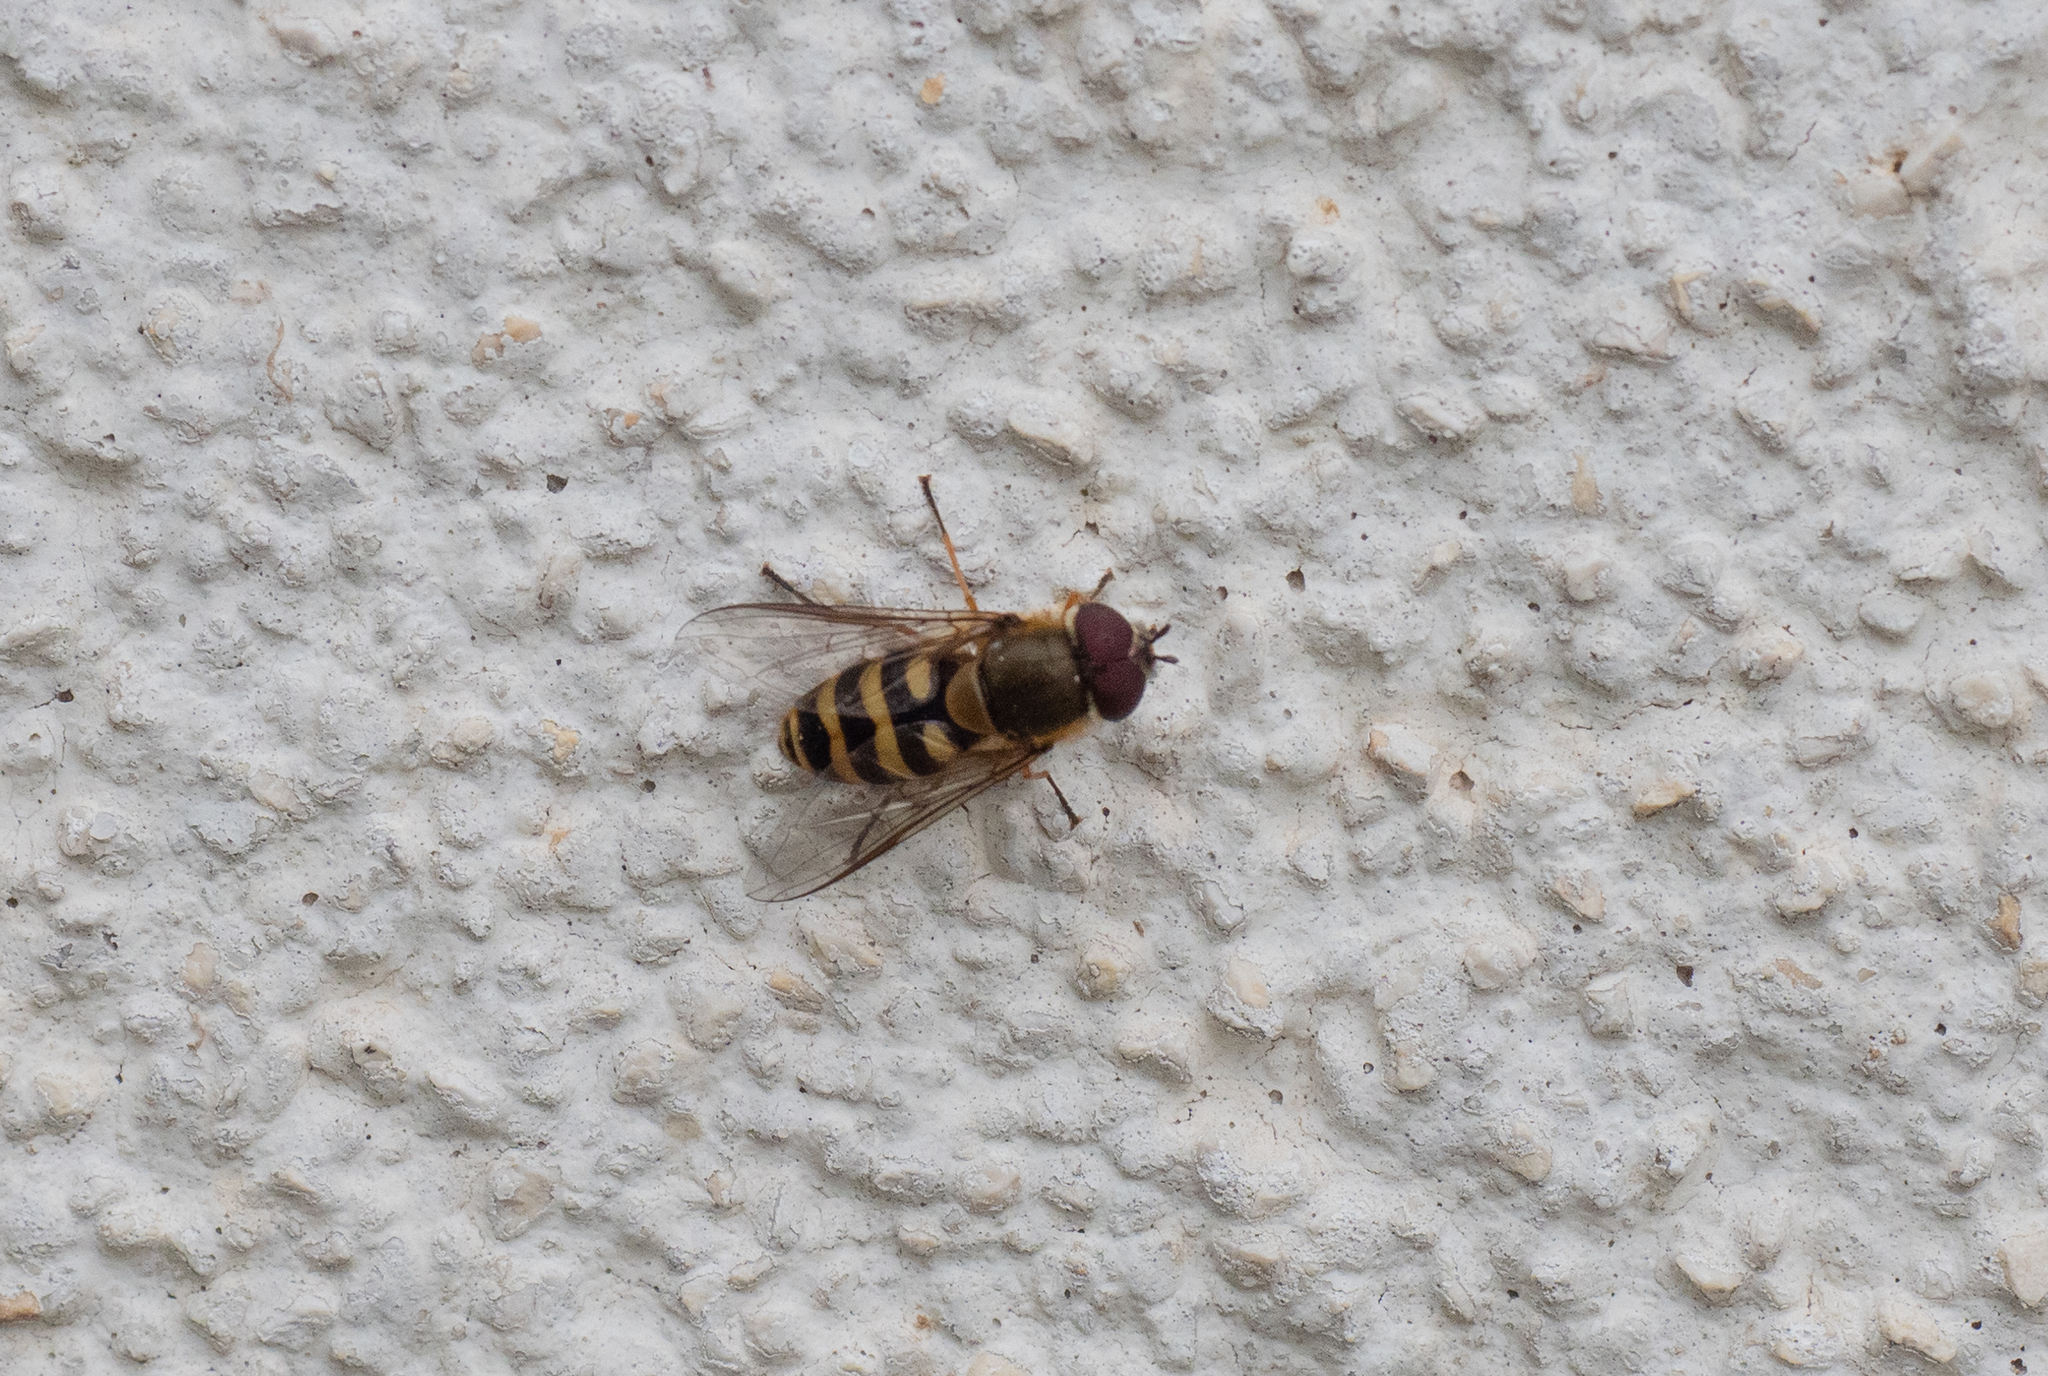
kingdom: Animalia
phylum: Arthropoda
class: Insecta
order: Diptera
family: Syrphidae
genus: Syrphus
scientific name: Syrphus
